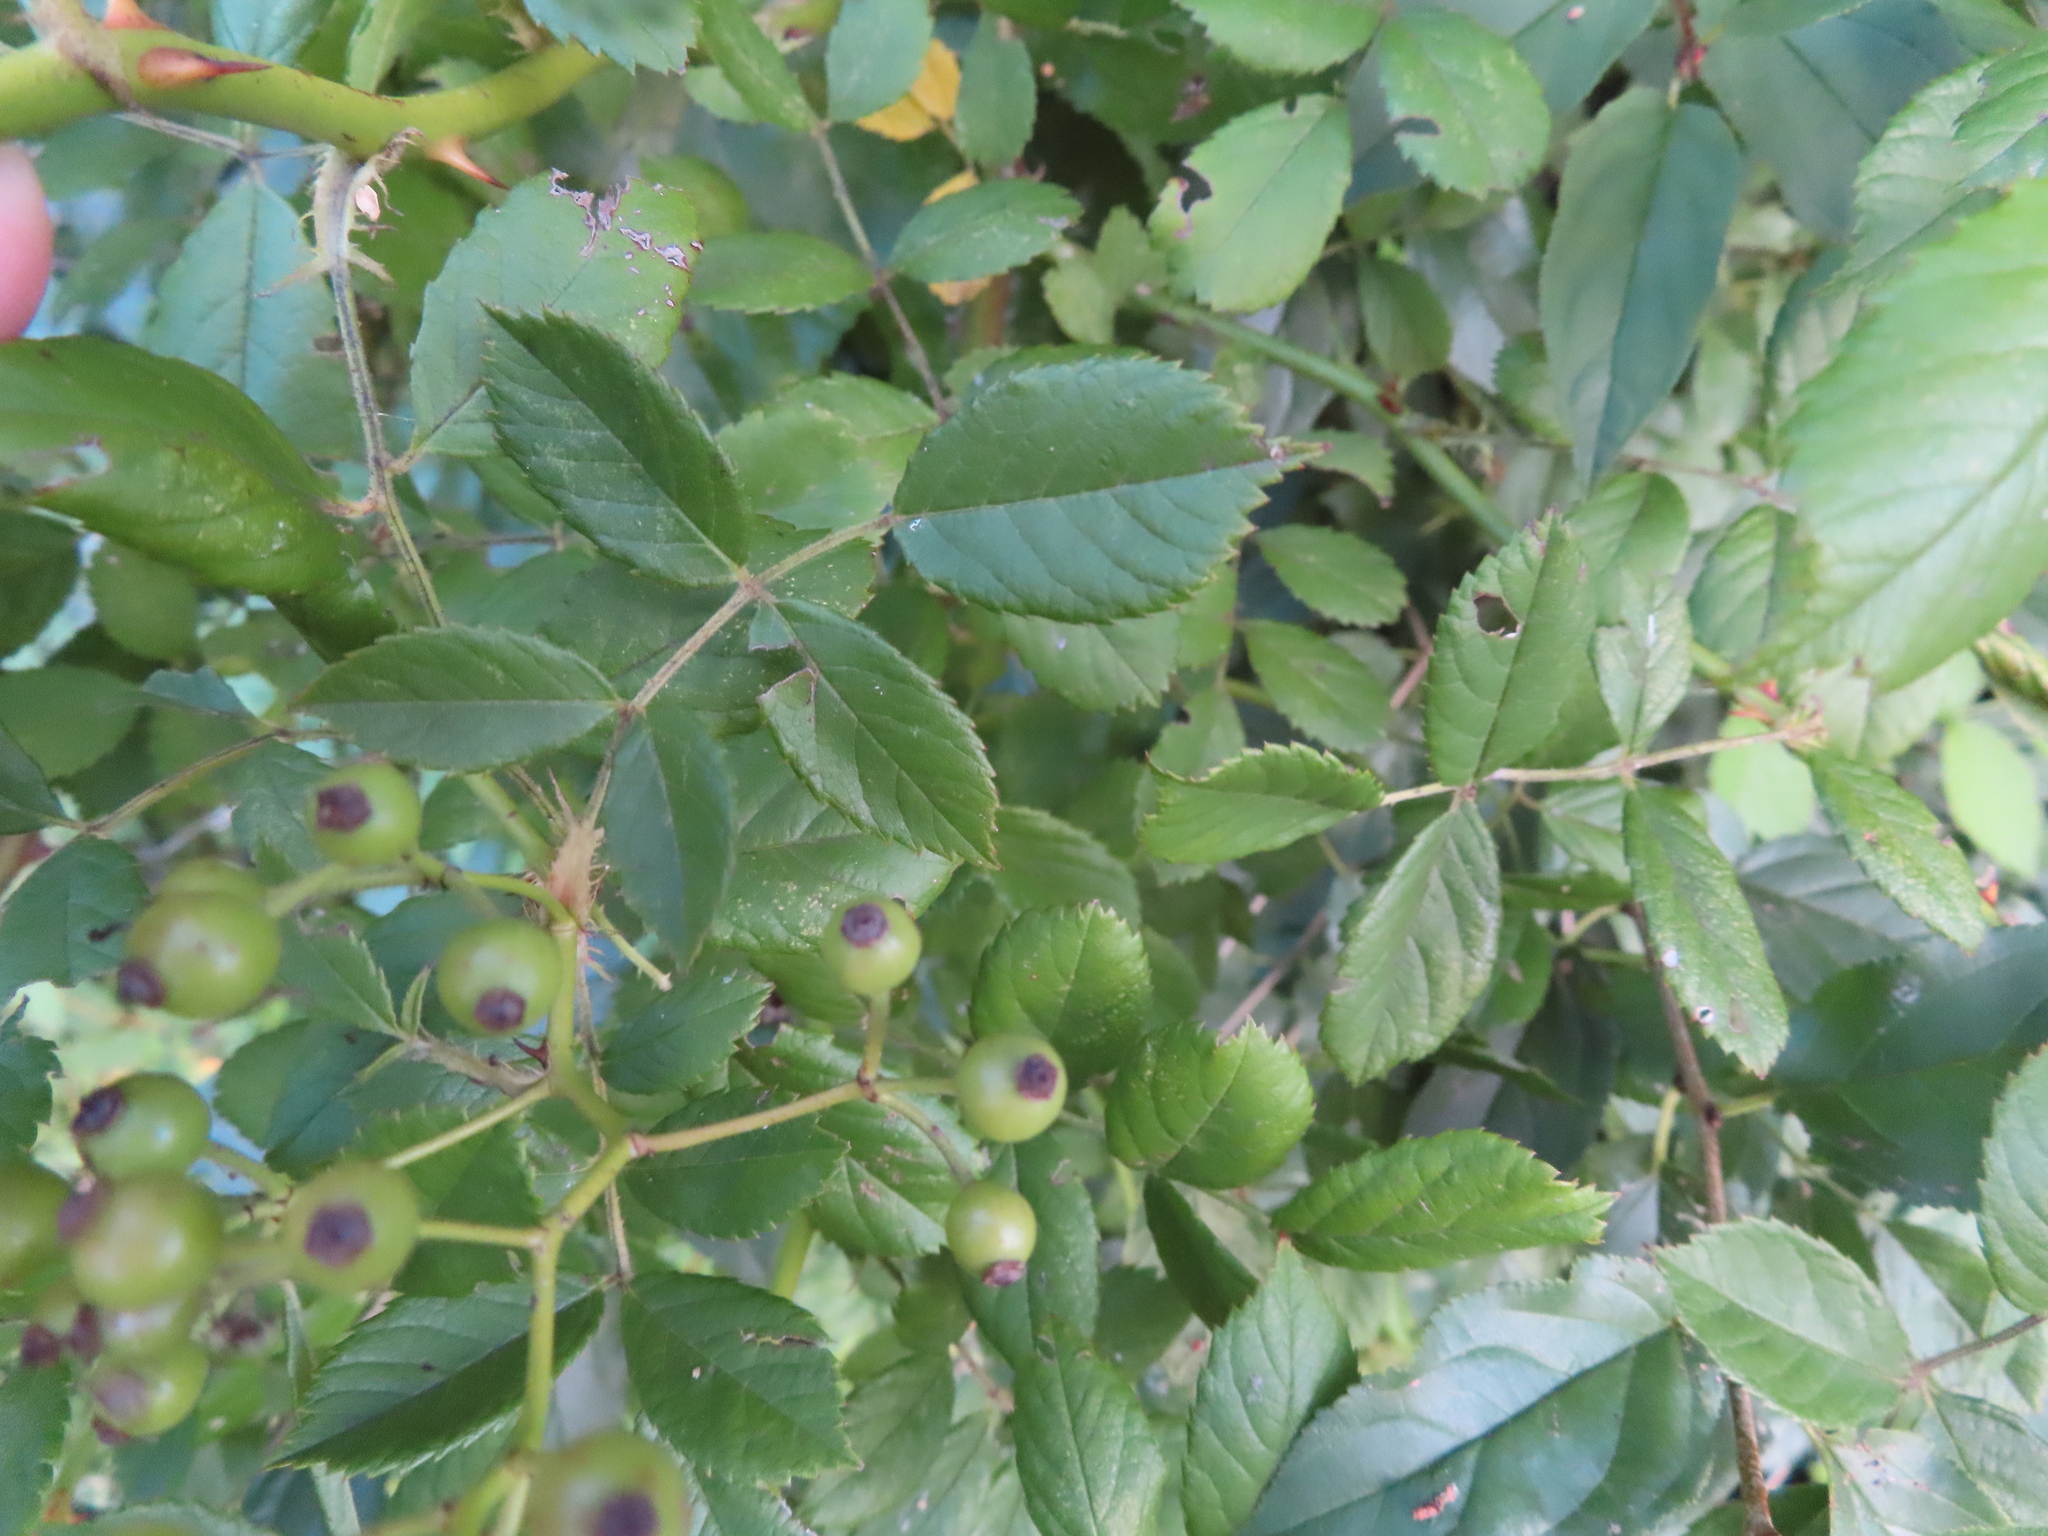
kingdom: Plantae
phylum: Tracheophyta
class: Magnoliopsida
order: Rosales
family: Rosaceae
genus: Rosa
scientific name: Rosa multiflora
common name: Multiflora rose
